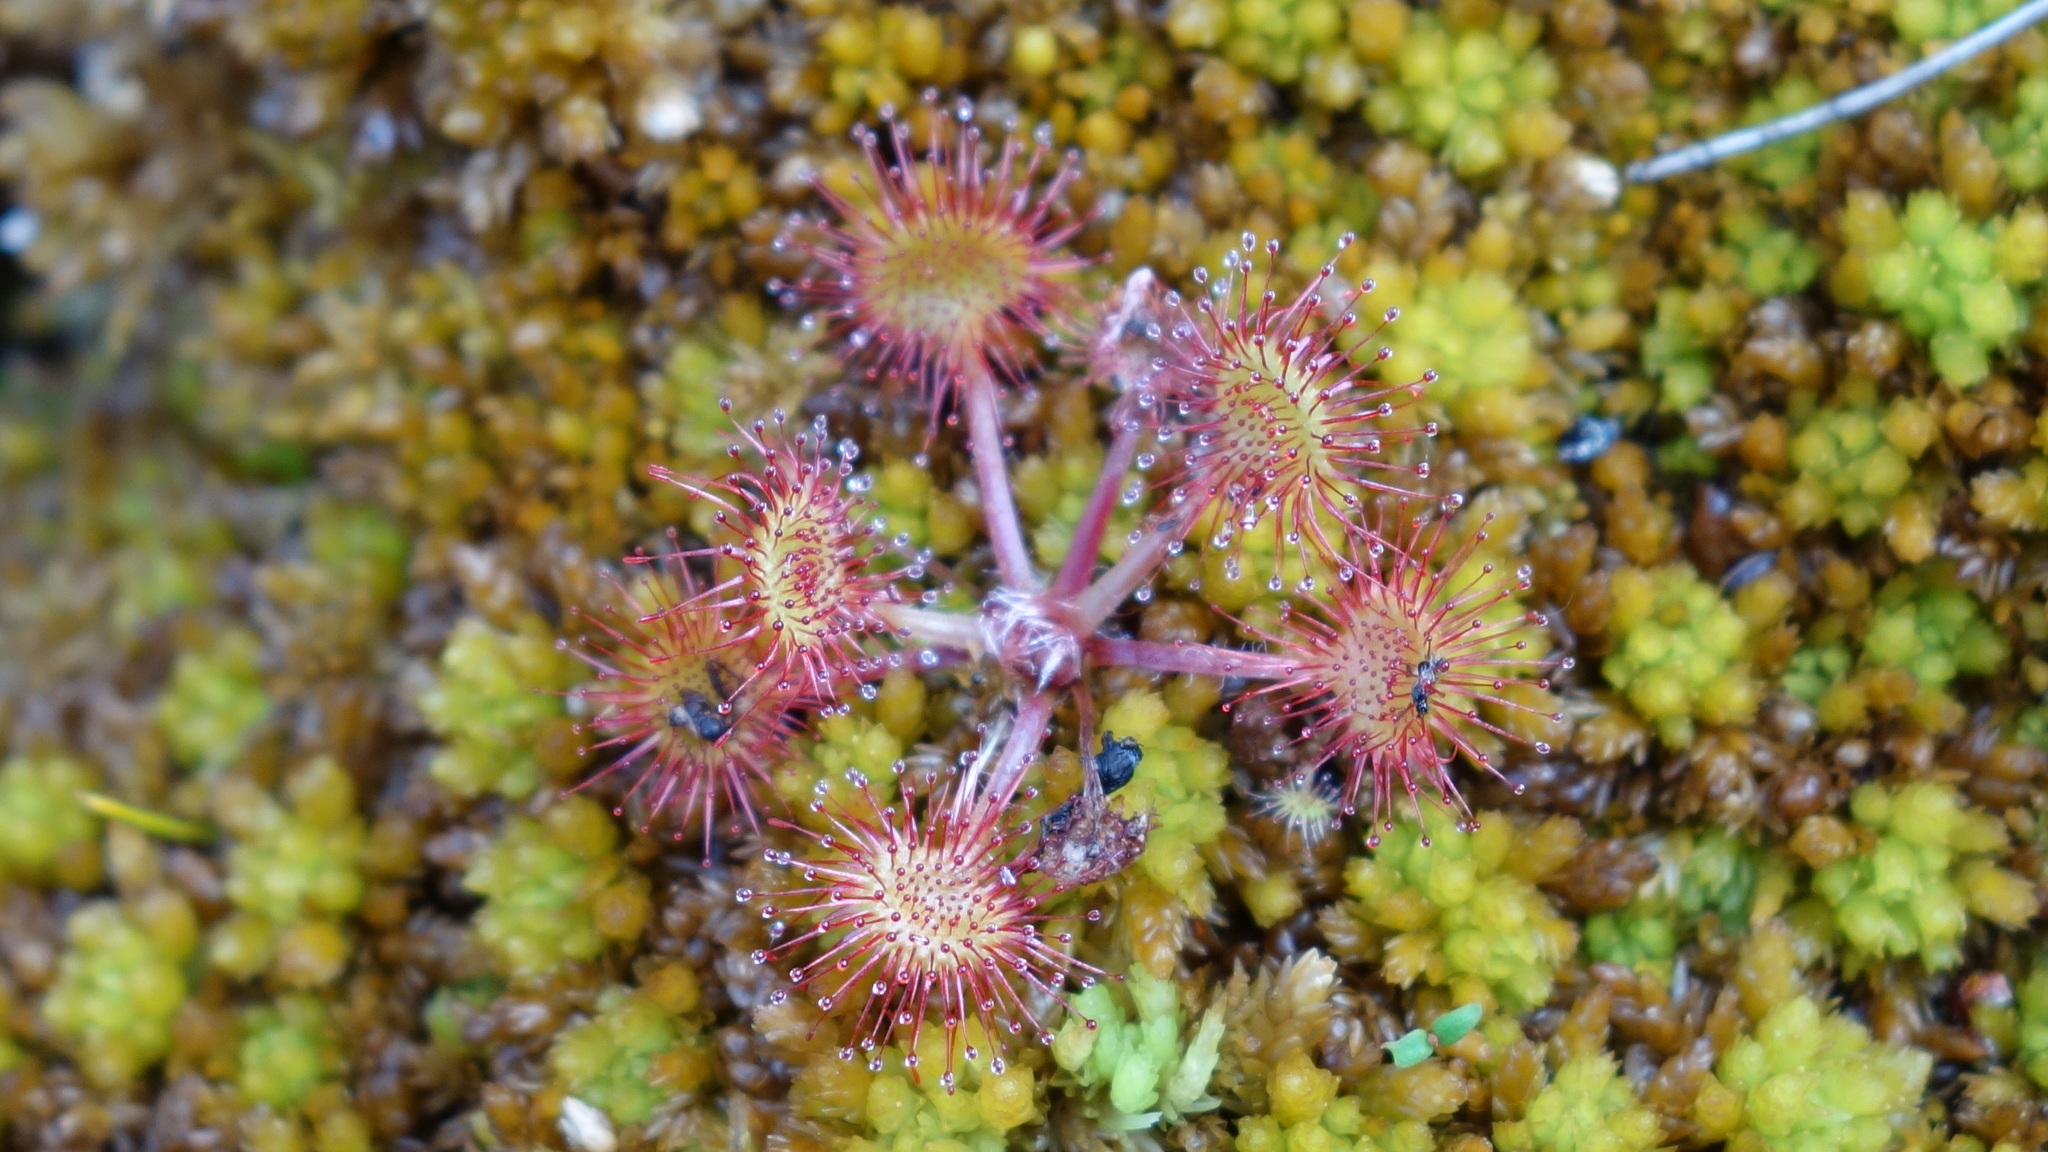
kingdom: Plantae
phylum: Tracheophyta
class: Magnoliopsida
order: Caryophyllales
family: Droseraceae
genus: Drosera
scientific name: Drosera rotundifolia
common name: Round-leaved sundew
